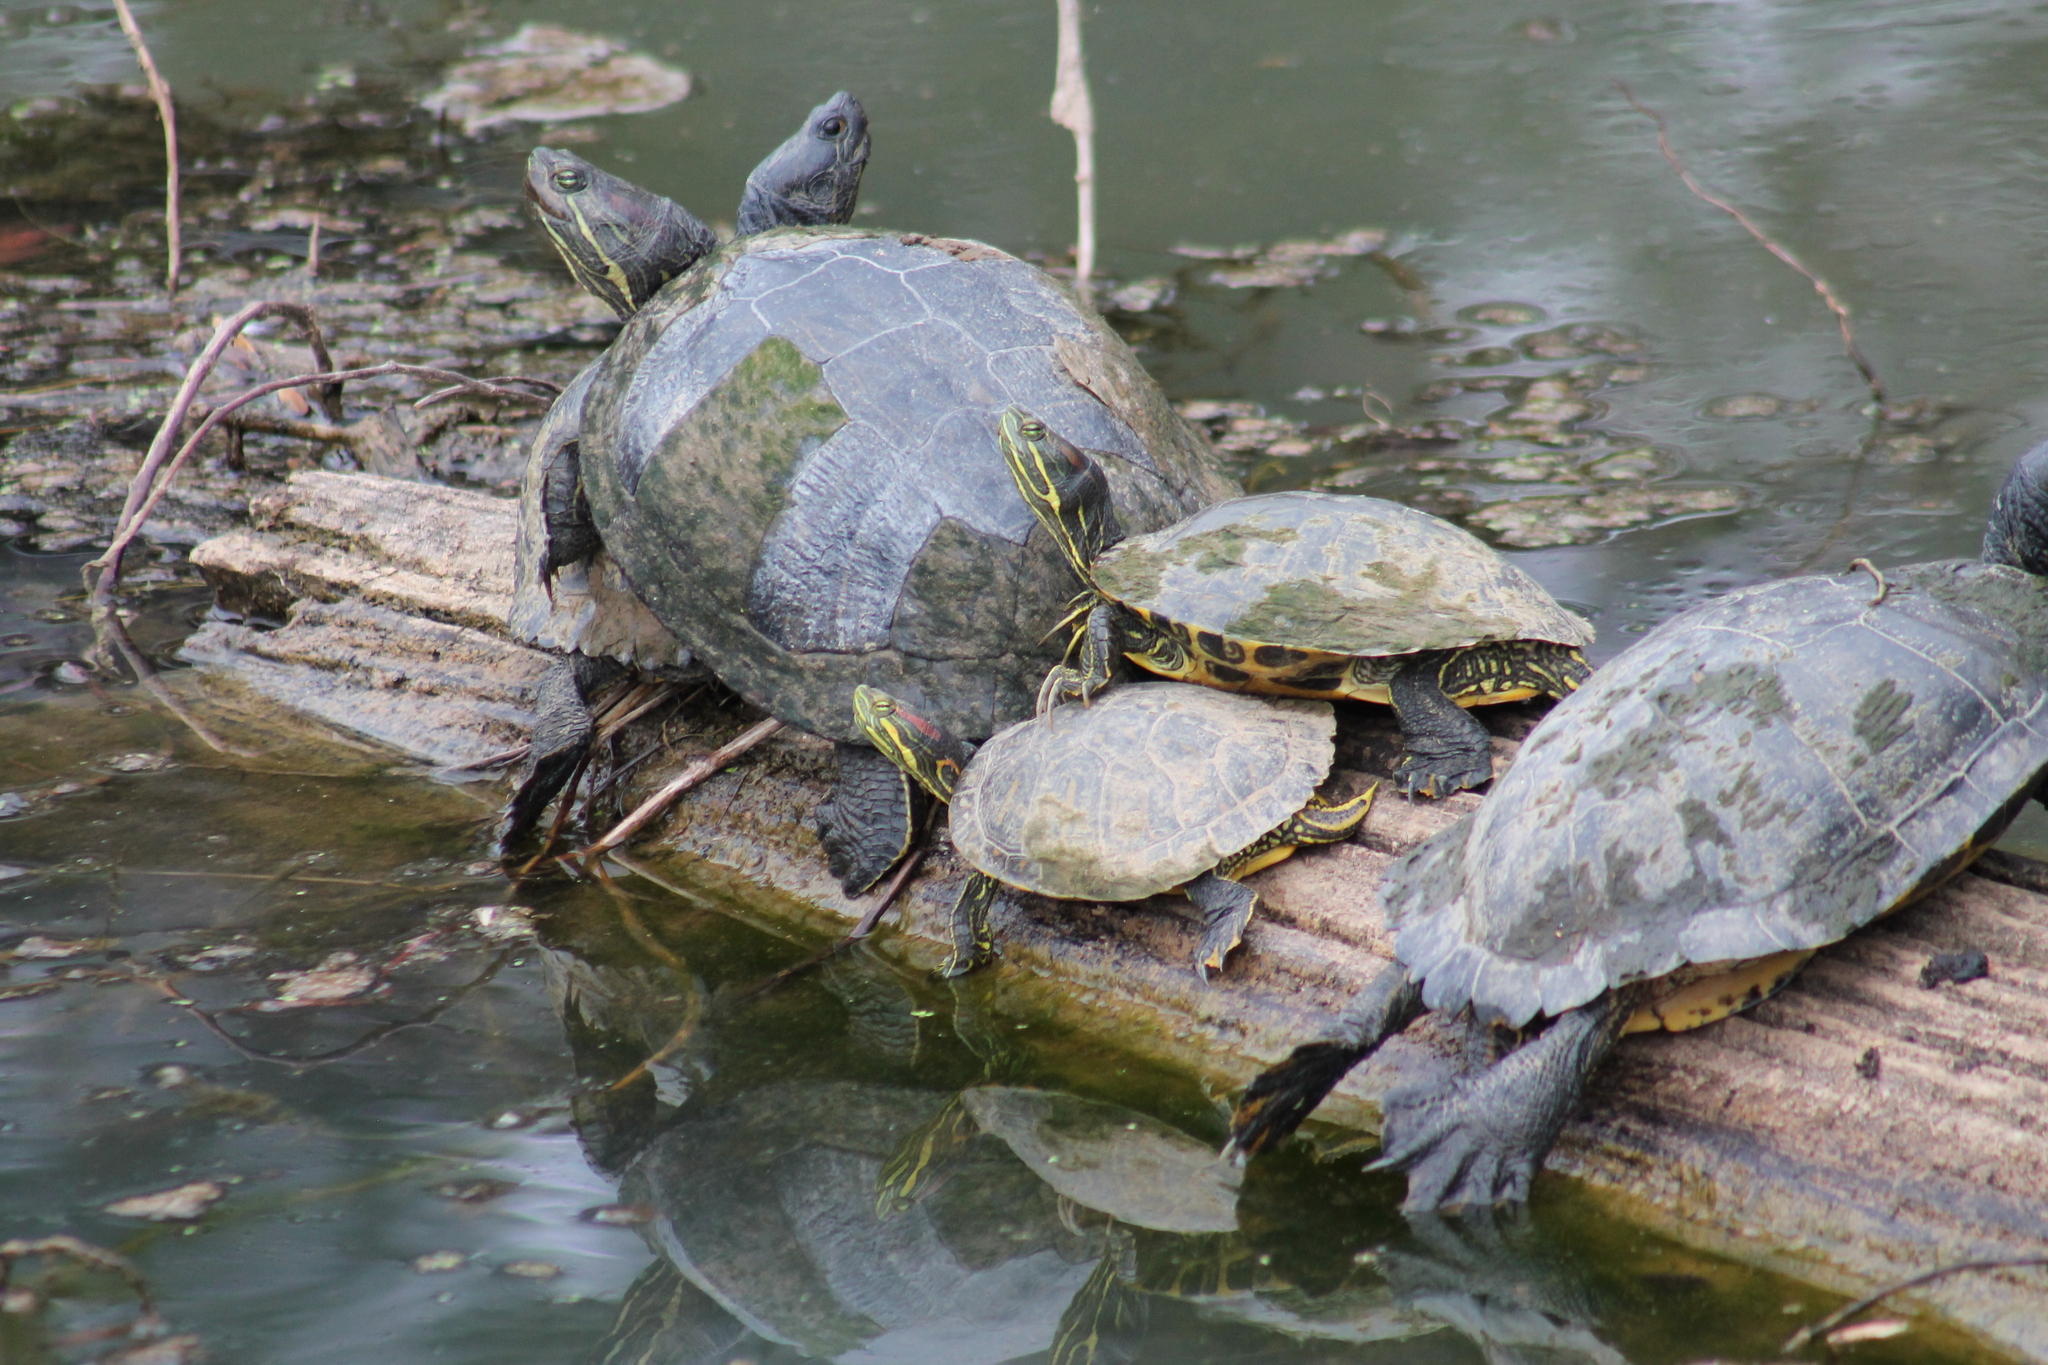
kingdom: Animalia
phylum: Chordata
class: Testudines
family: Emydidae
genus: Trachemys
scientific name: Trachemys scripta
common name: Slider
